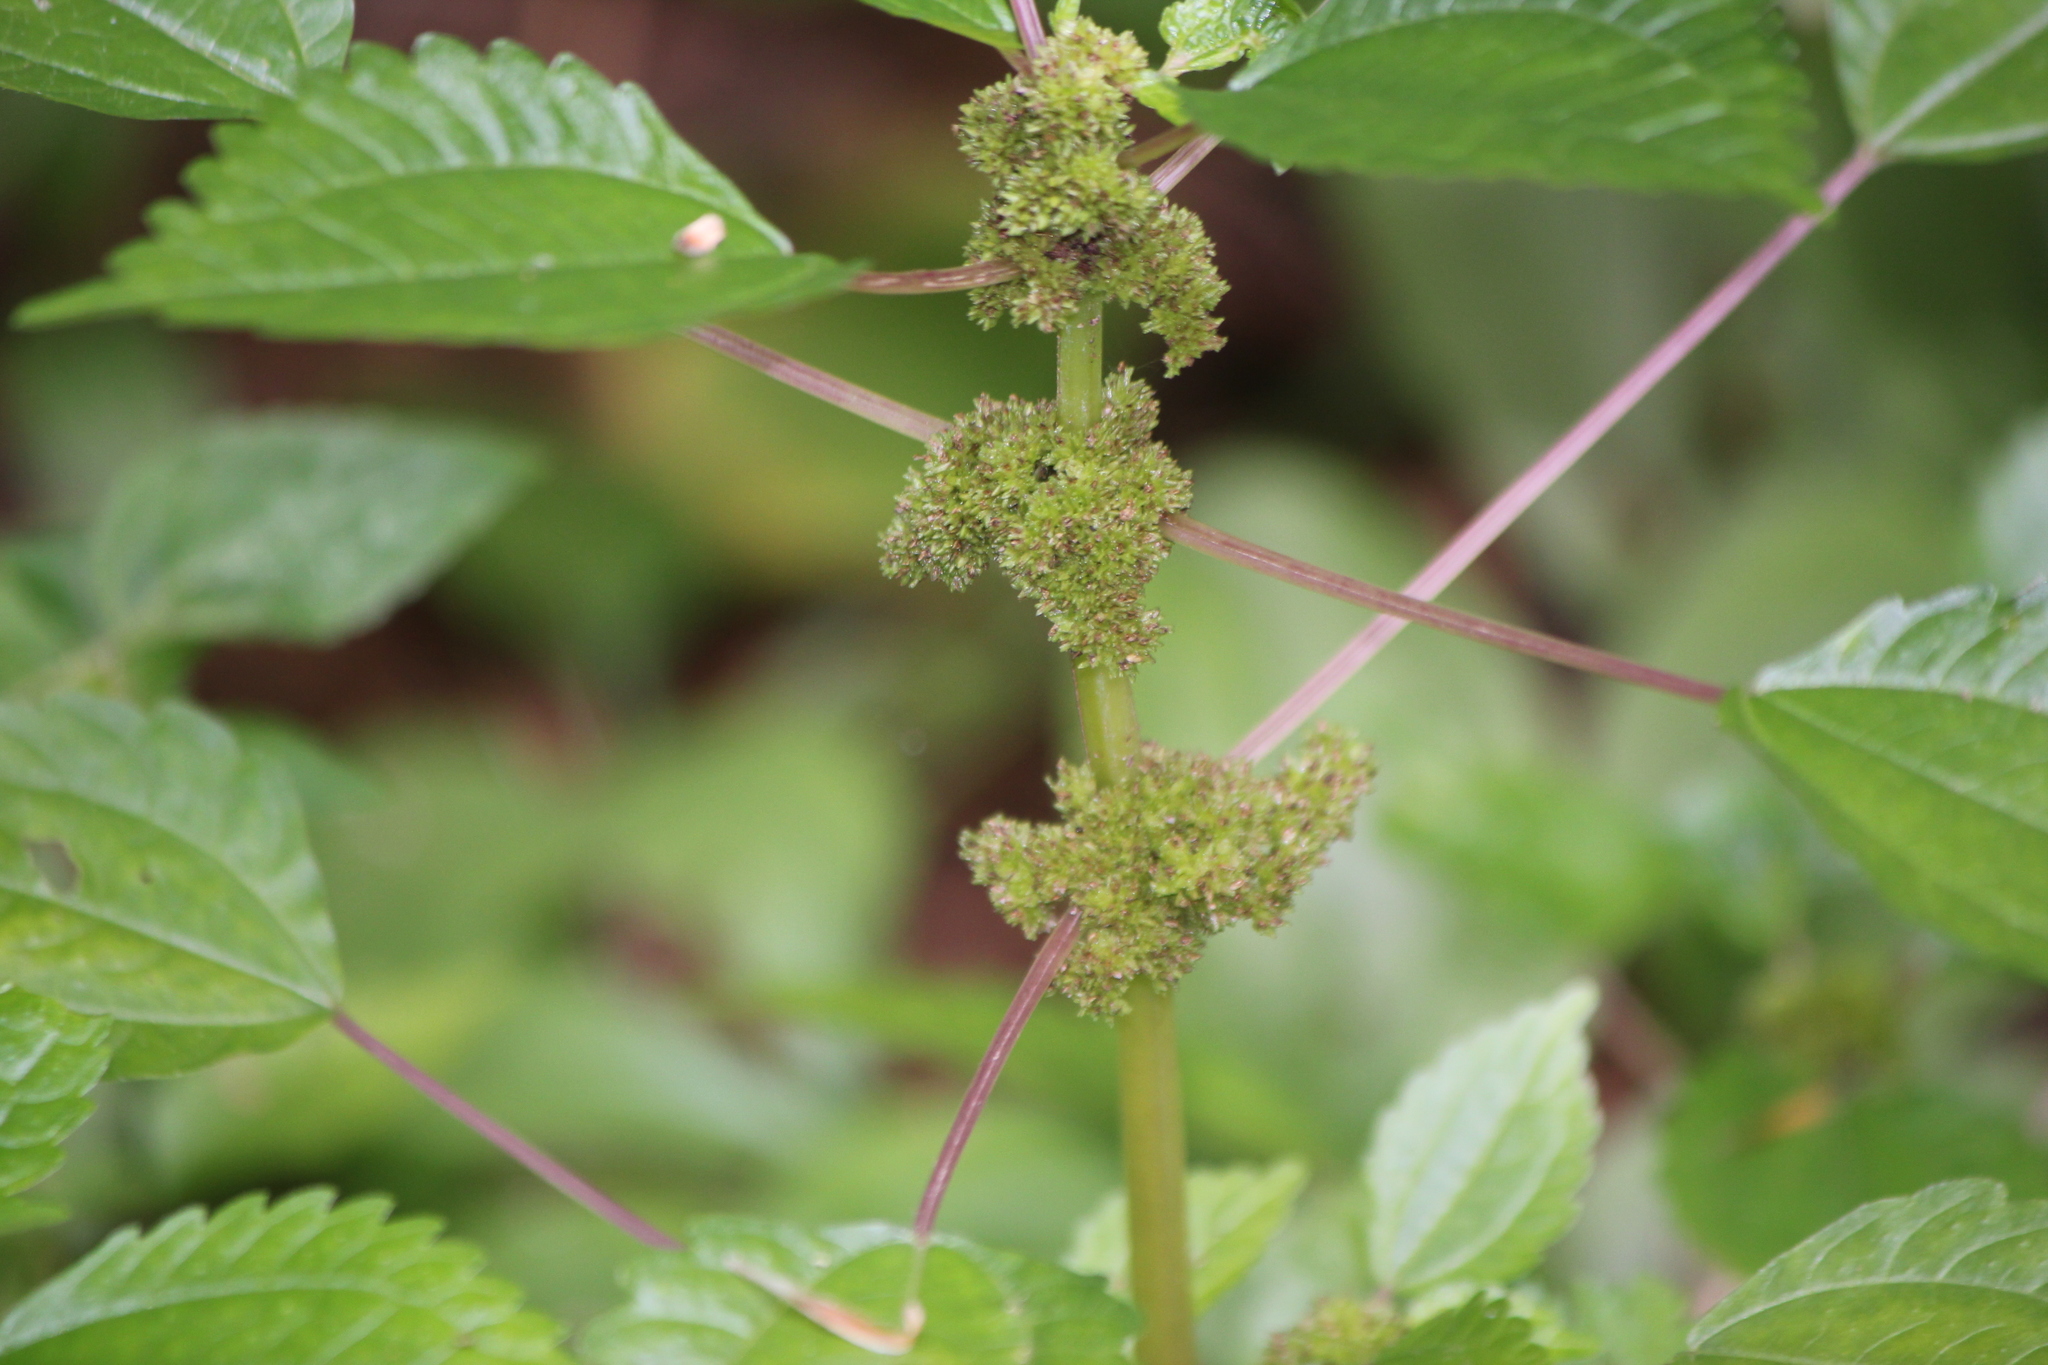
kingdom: Plantae
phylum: Tracheophyta
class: Magnoliopsida
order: Rosales
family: Urticaceae
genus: Pilea
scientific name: Pilea pumila
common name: Clearweed
